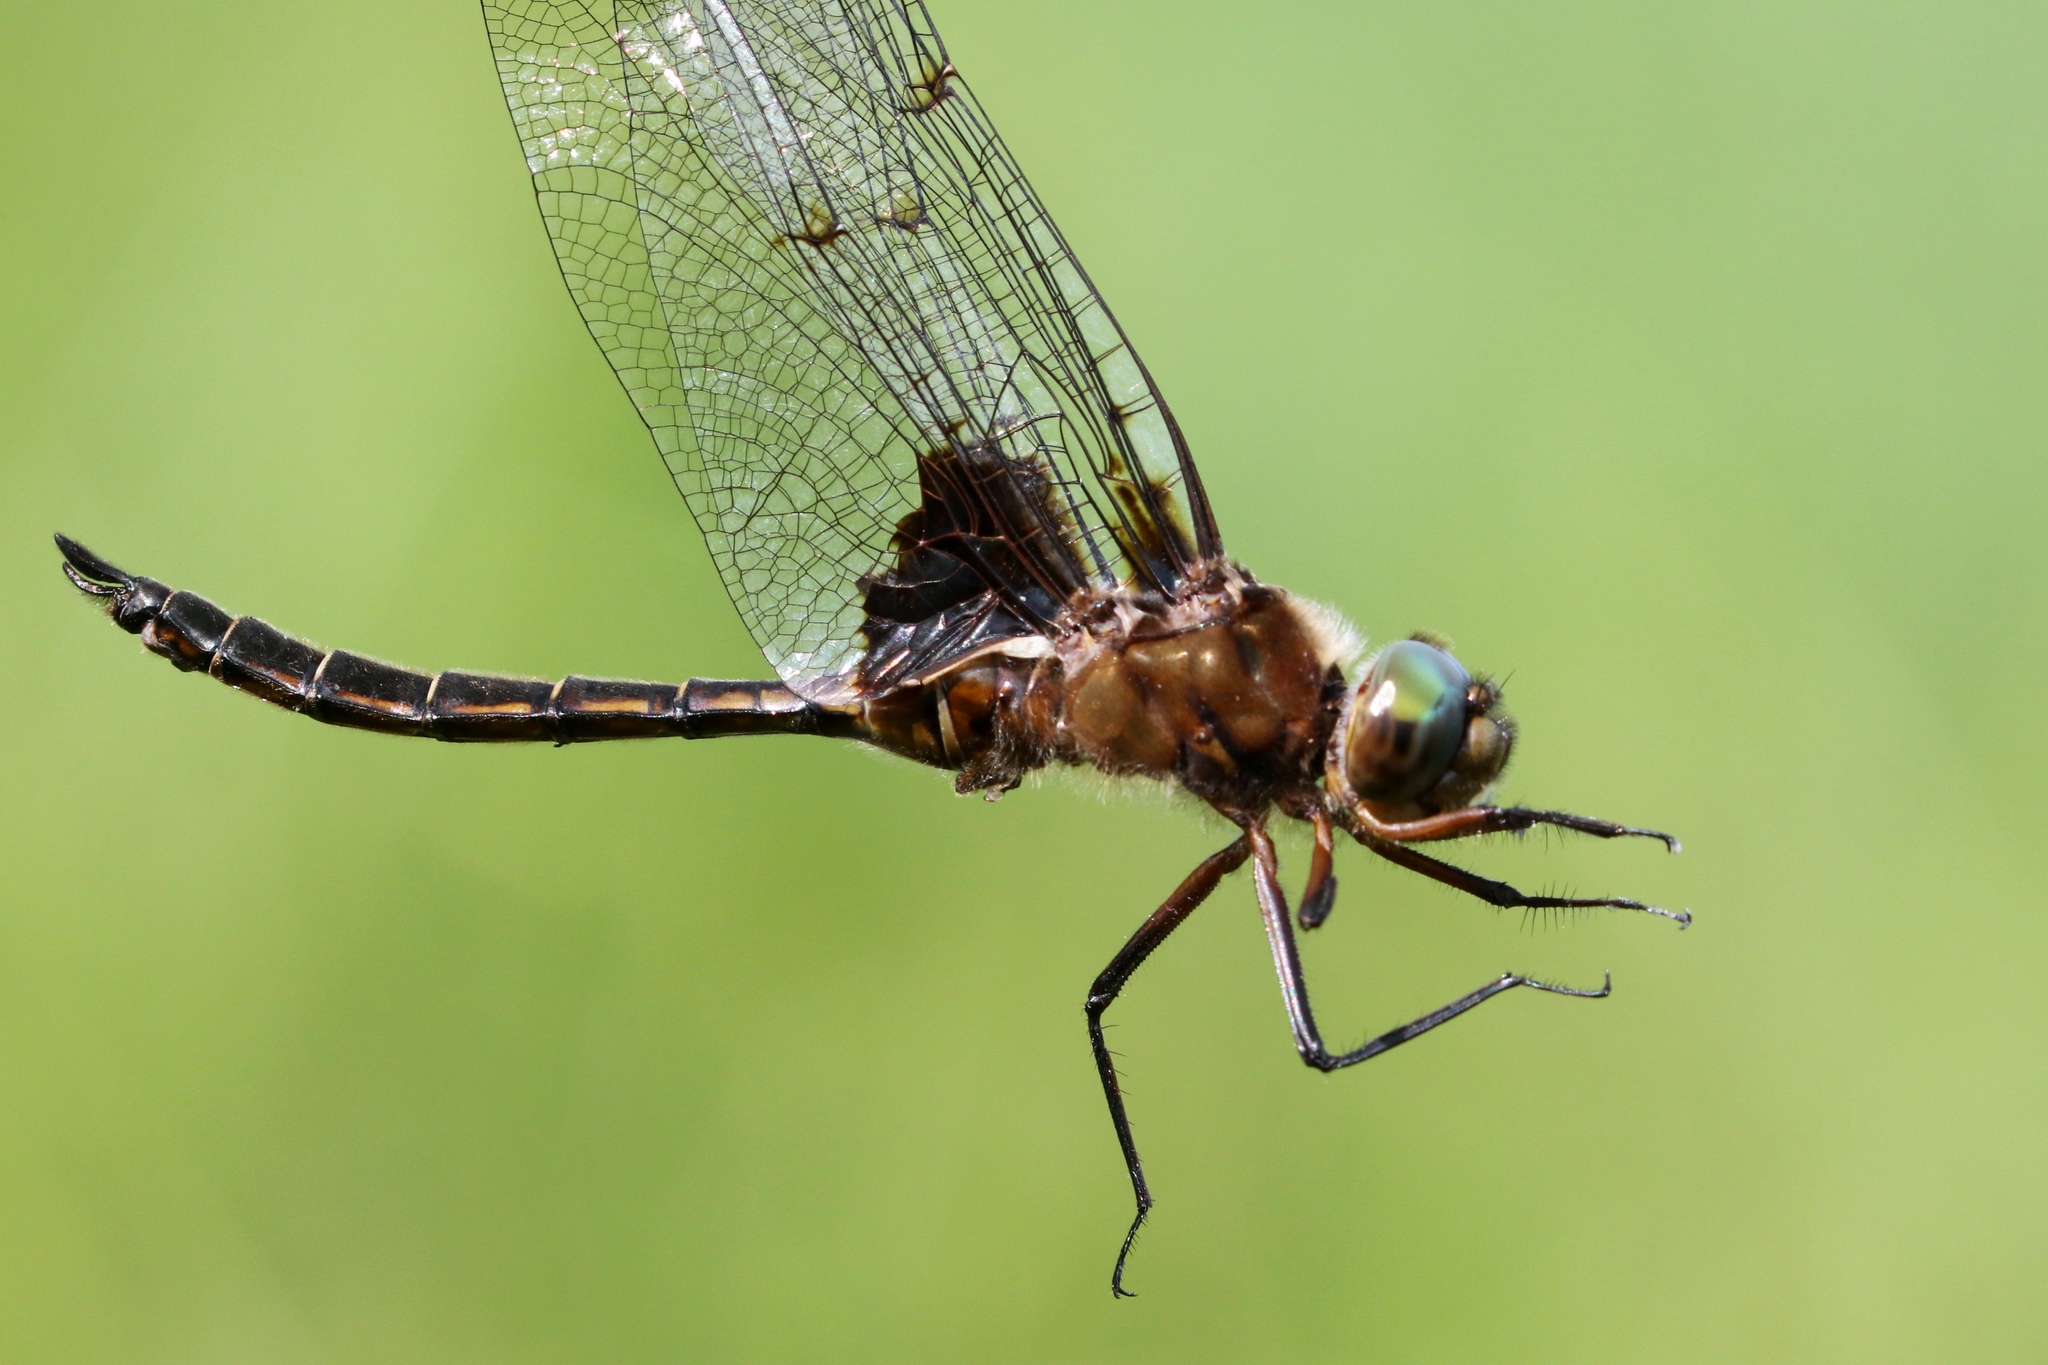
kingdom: Animalia
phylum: Arthropoda
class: Insecta
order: Odonata
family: Corduliidae
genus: Epitheca
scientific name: Epitheca princeps
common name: Prince baskettail
